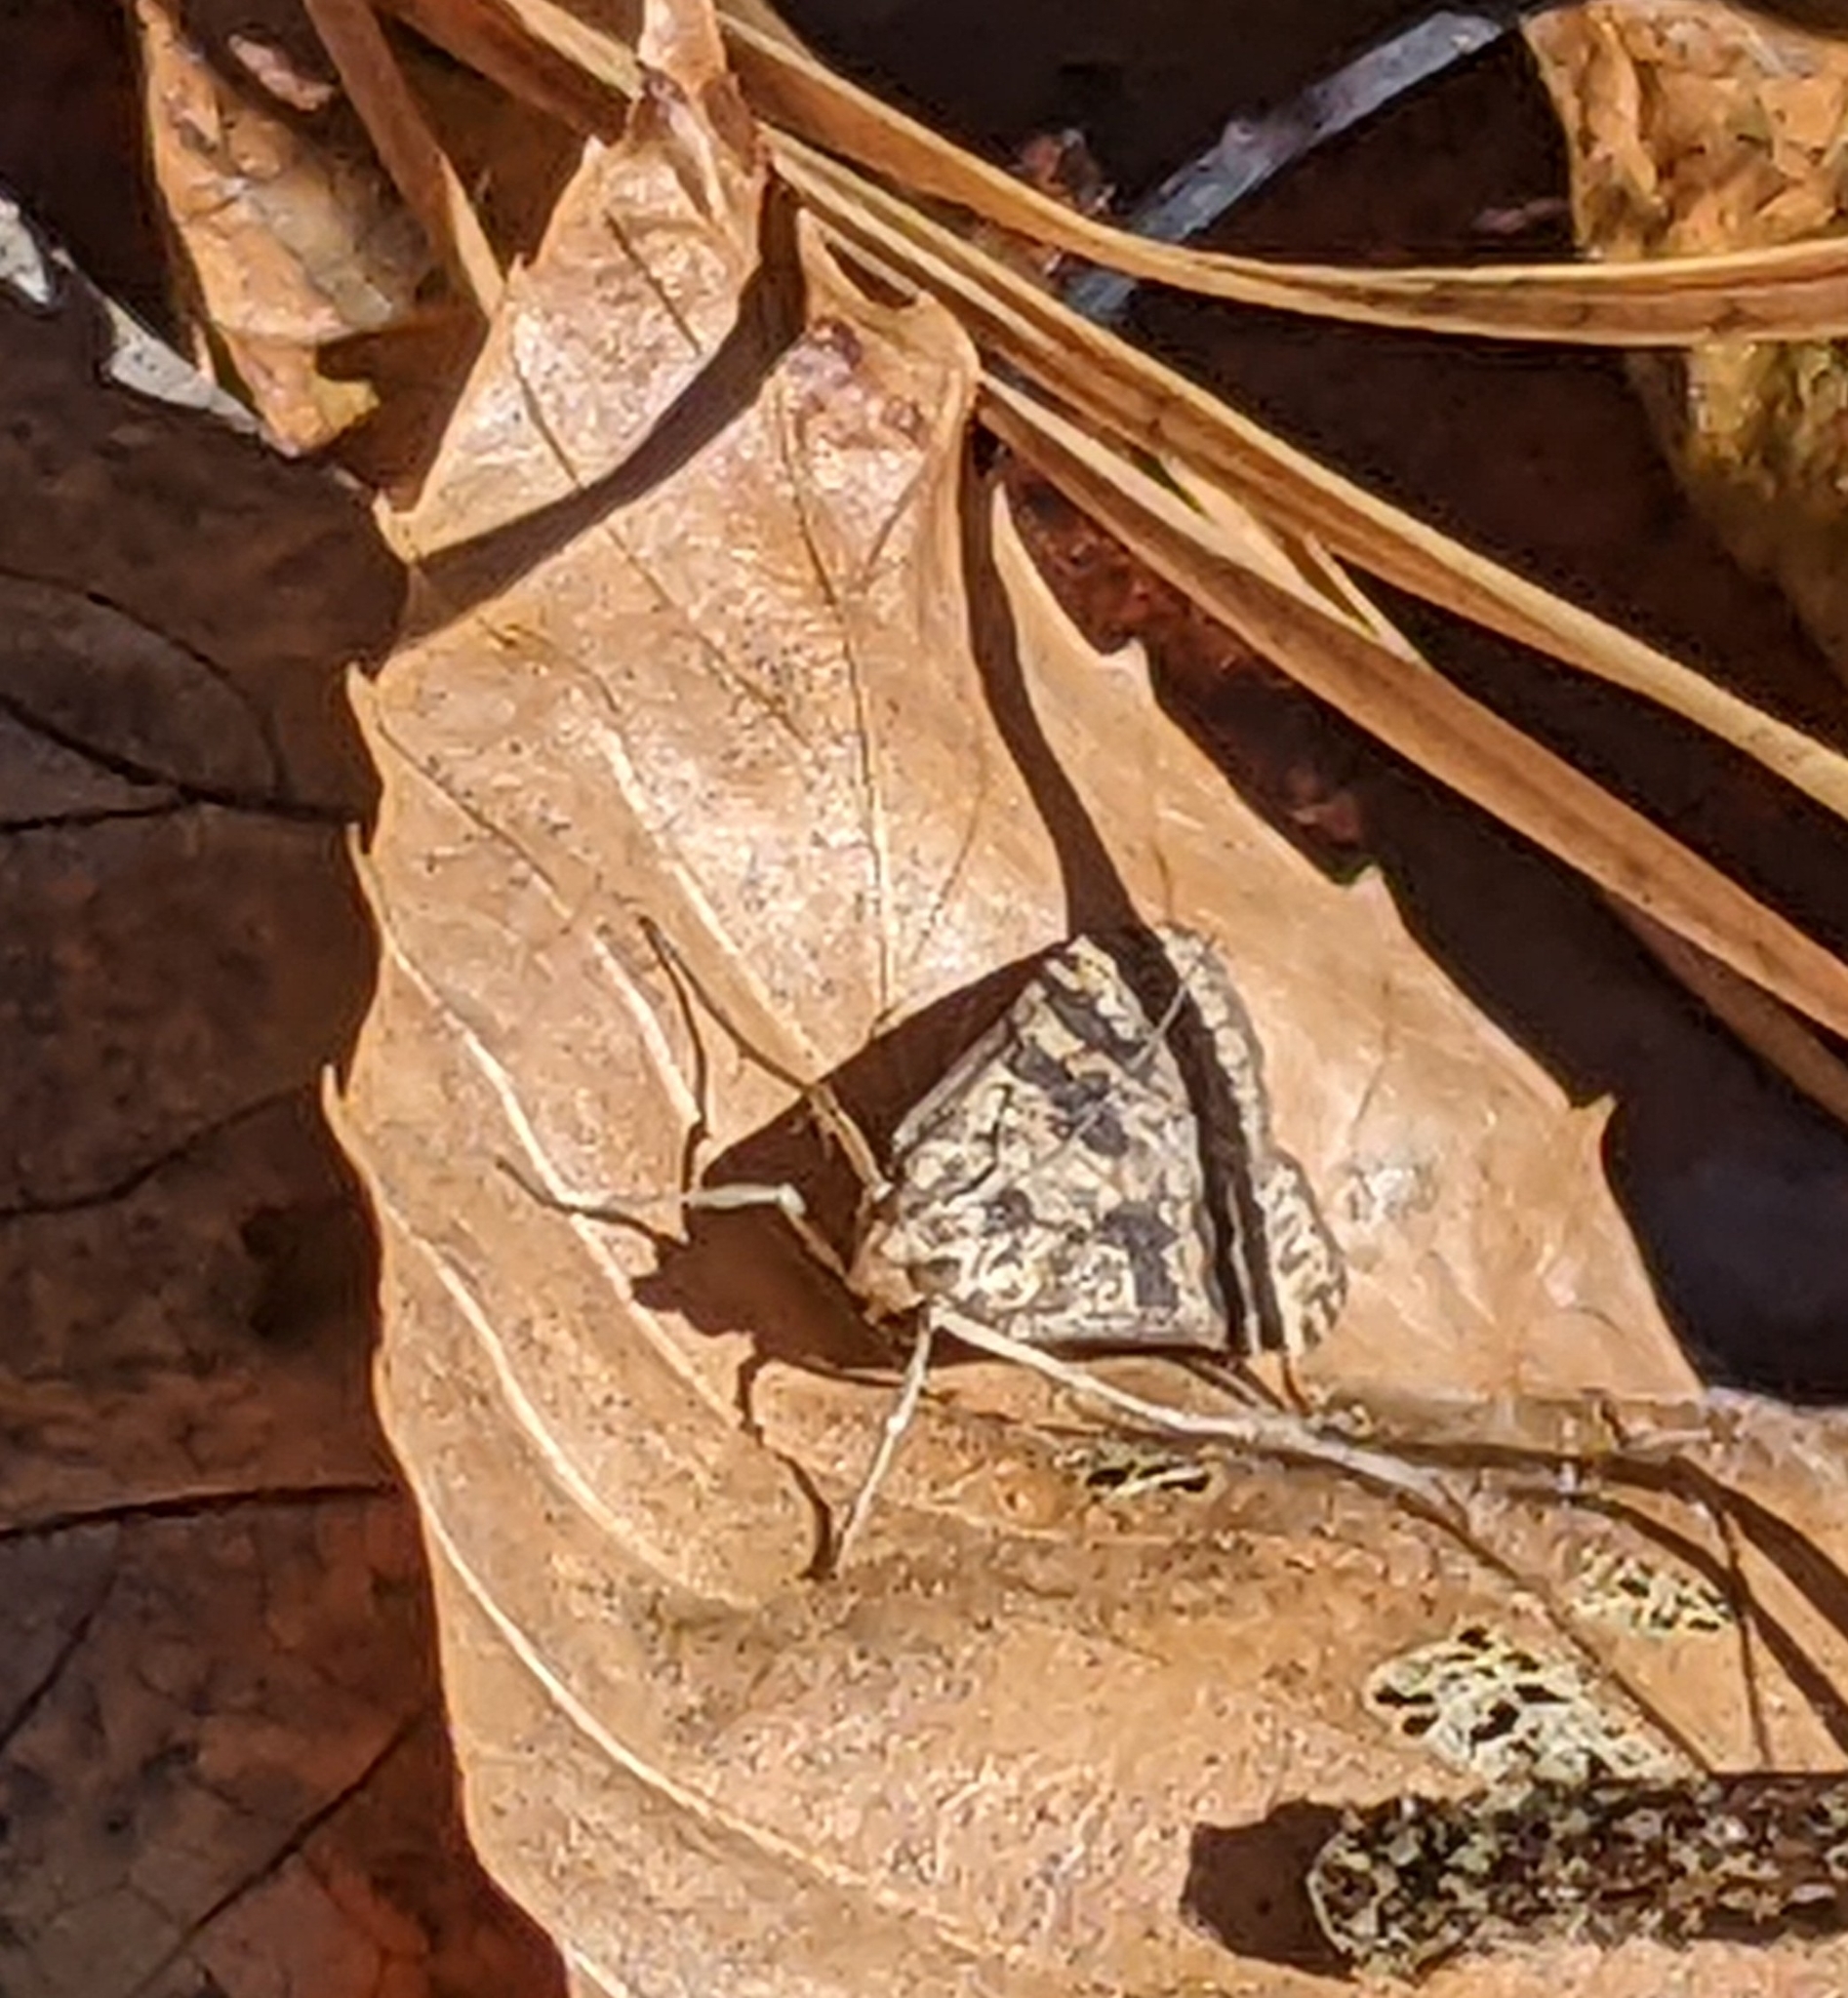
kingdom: Animalia
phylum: Arthropoda
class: Insecta
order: Lepidoptera
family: Crambidae
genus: Nomophila
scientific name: Nomophila nearctica
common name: American rush veneer
